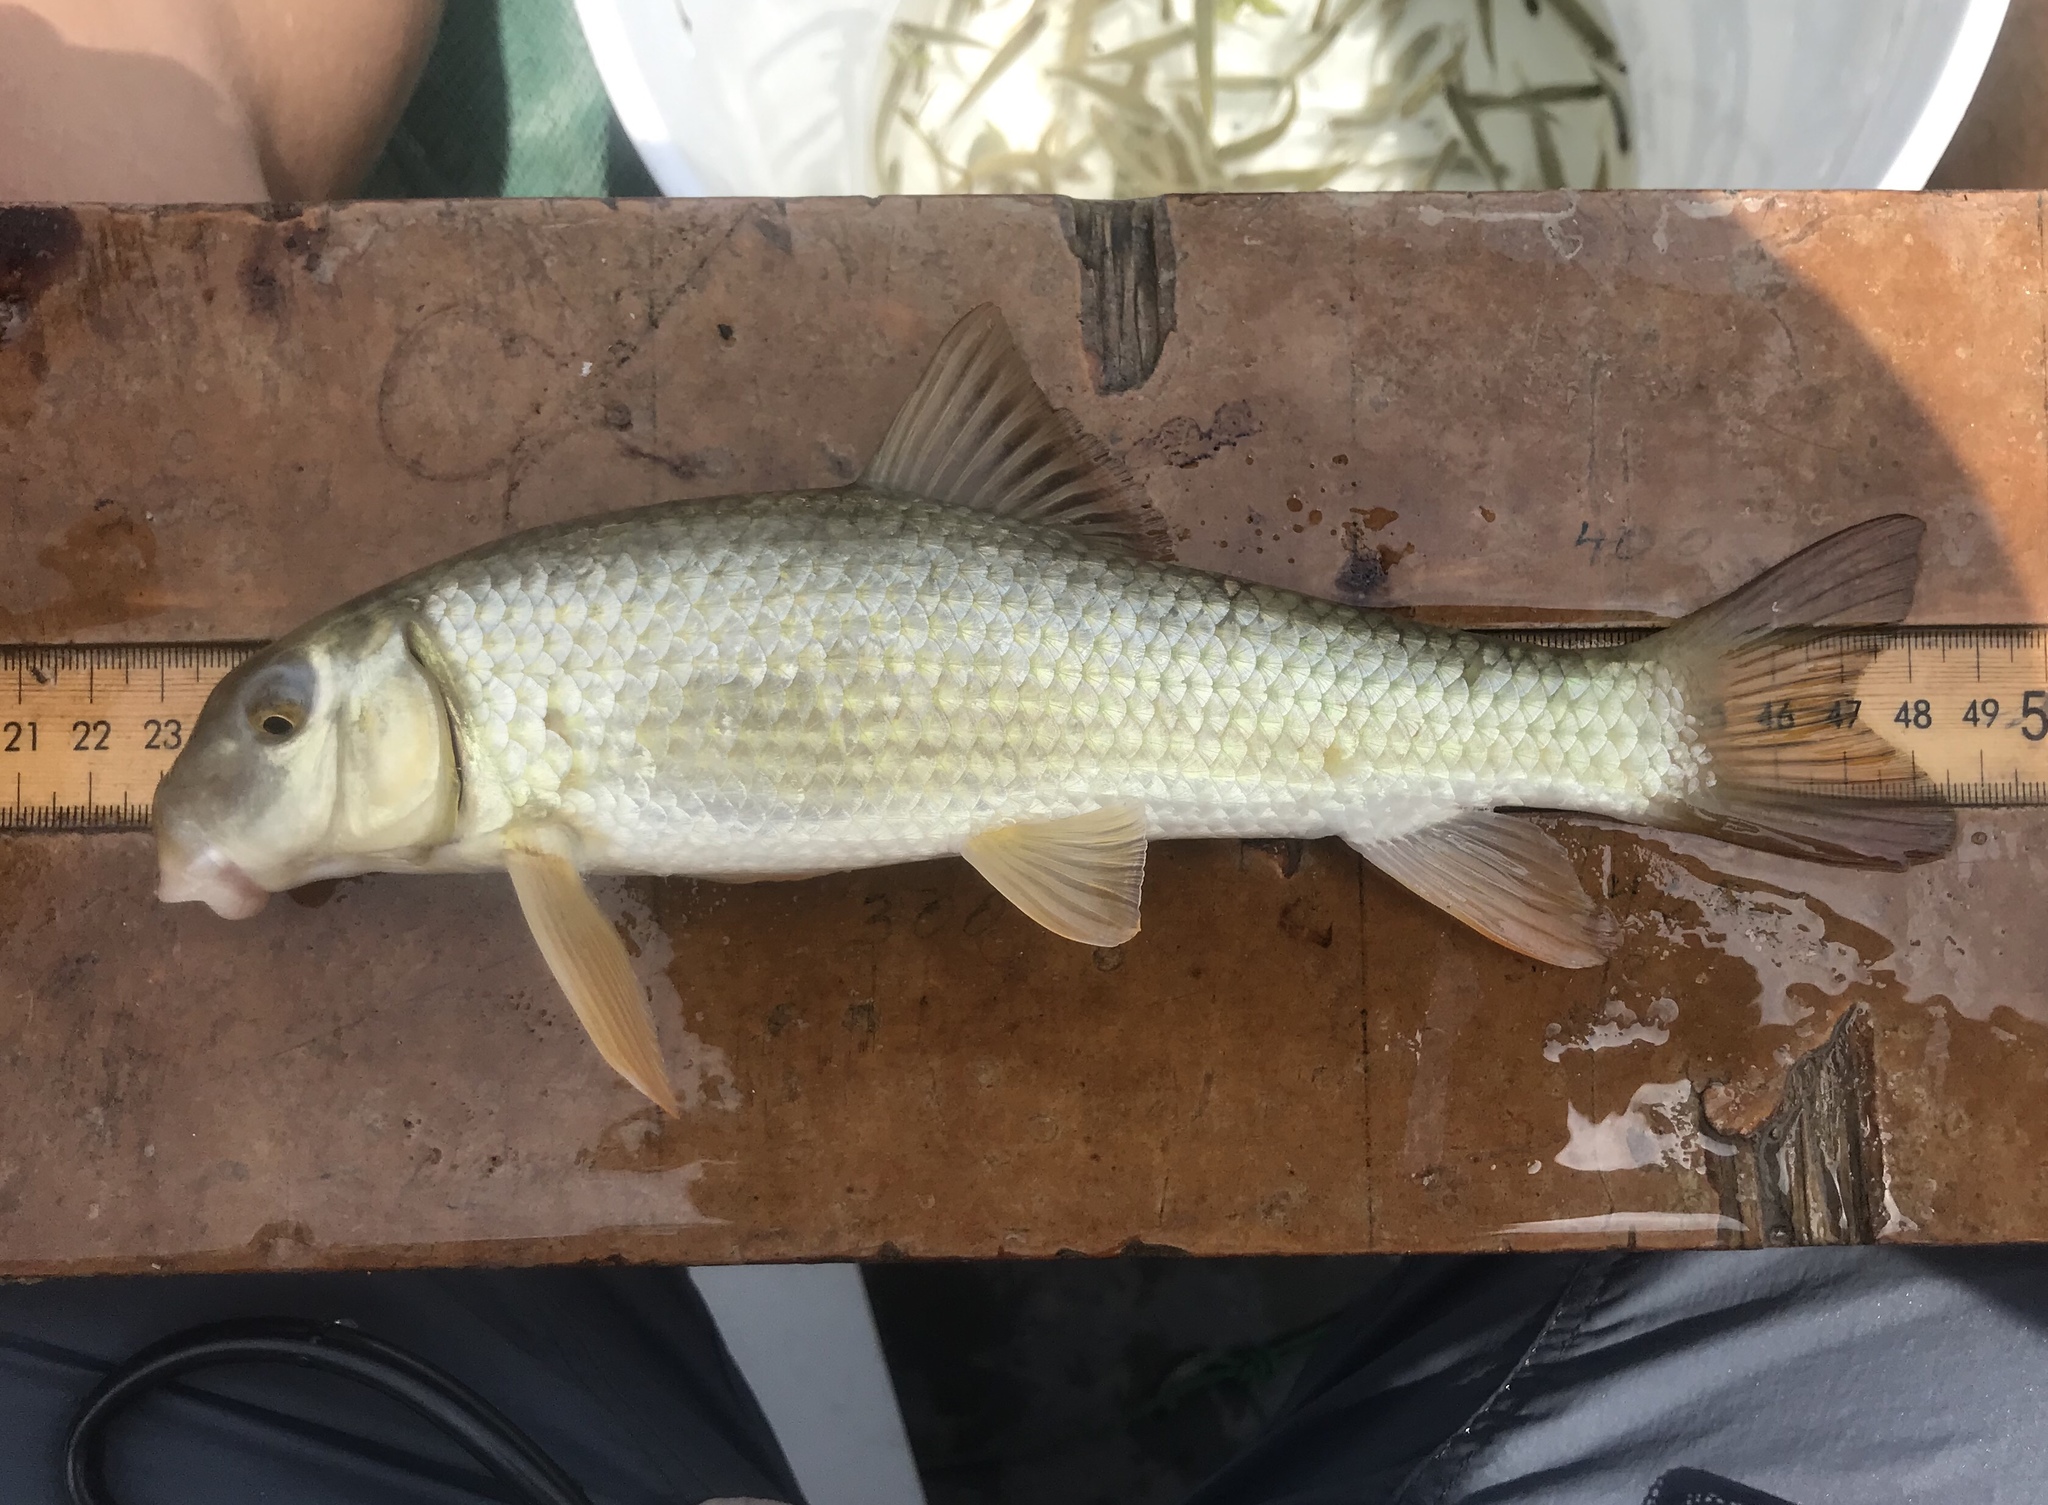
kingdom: Animalia
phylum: Chordata
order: Cypriniformes
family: Catostomidae
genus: Moxostoma
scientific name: Moxostoma congestum
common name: Gray redhorse
